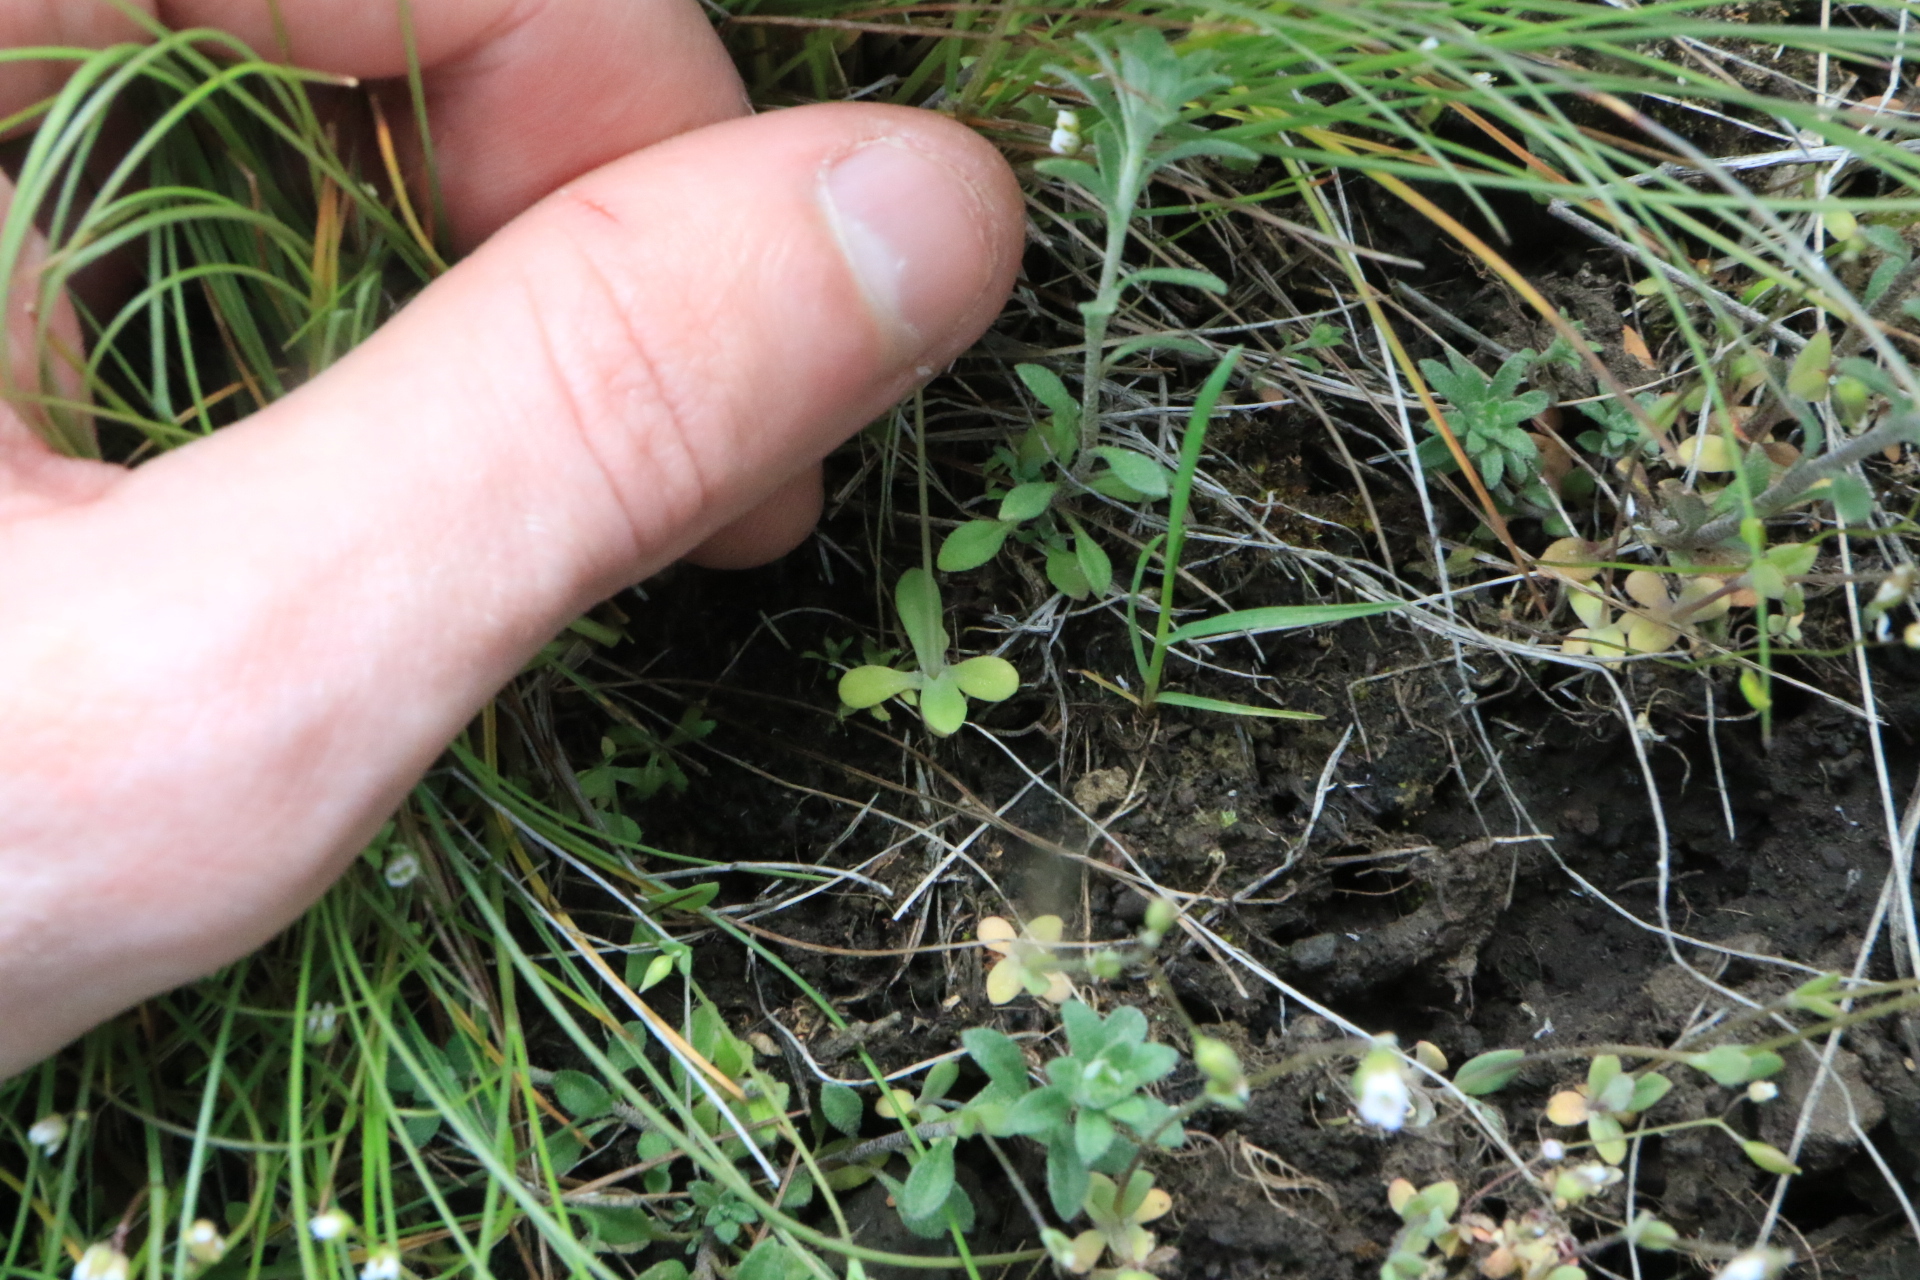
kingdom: Plantae
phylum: Tracheophyta
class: Magnoliopsida
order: Caryophyllales
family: Caryophyllaceae
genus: Holosteum
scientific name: Holosteum umbellatum
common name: Jagged chickweed
